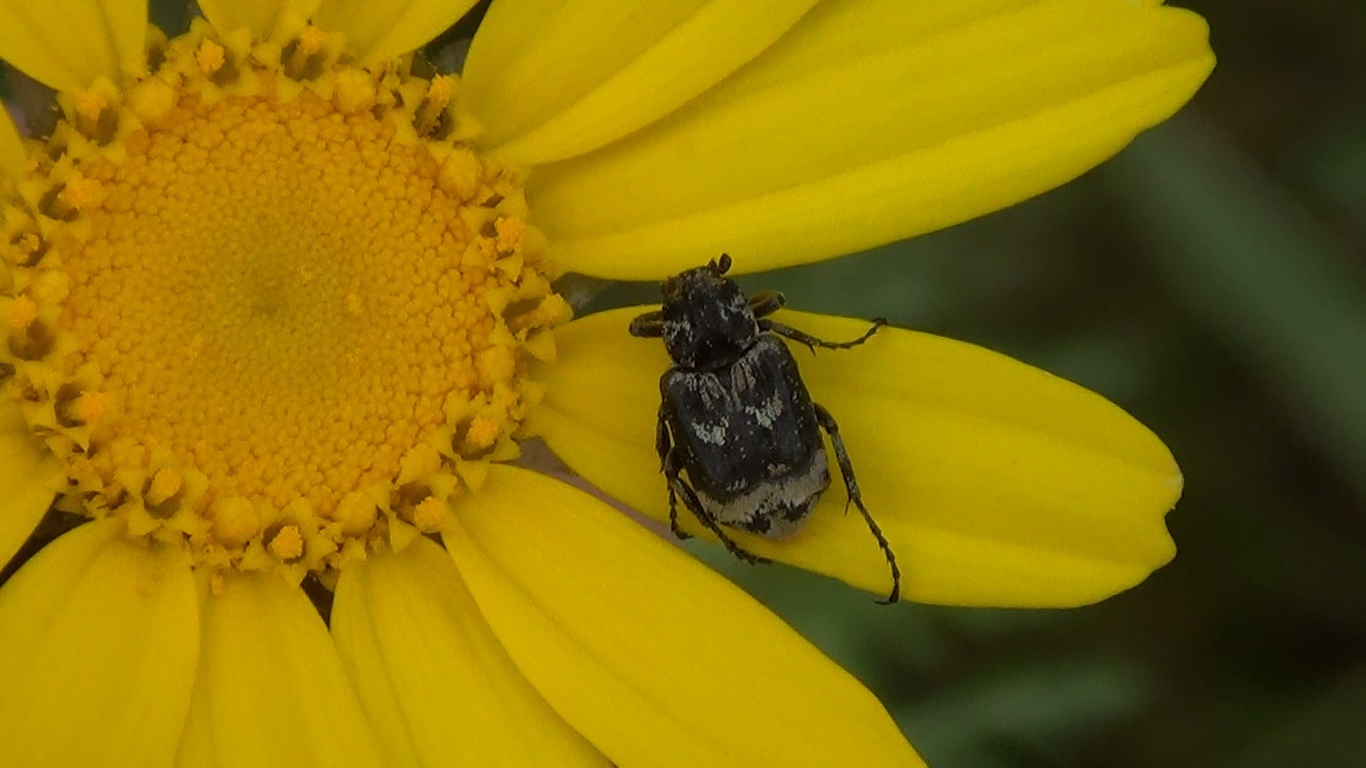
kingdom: Animalia
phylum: Arthropoda
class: Insecta
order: Coleoptera
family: Scarabaeidae
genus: Valgus
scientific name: Valgus hemipterus
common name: Bug flower chafer
